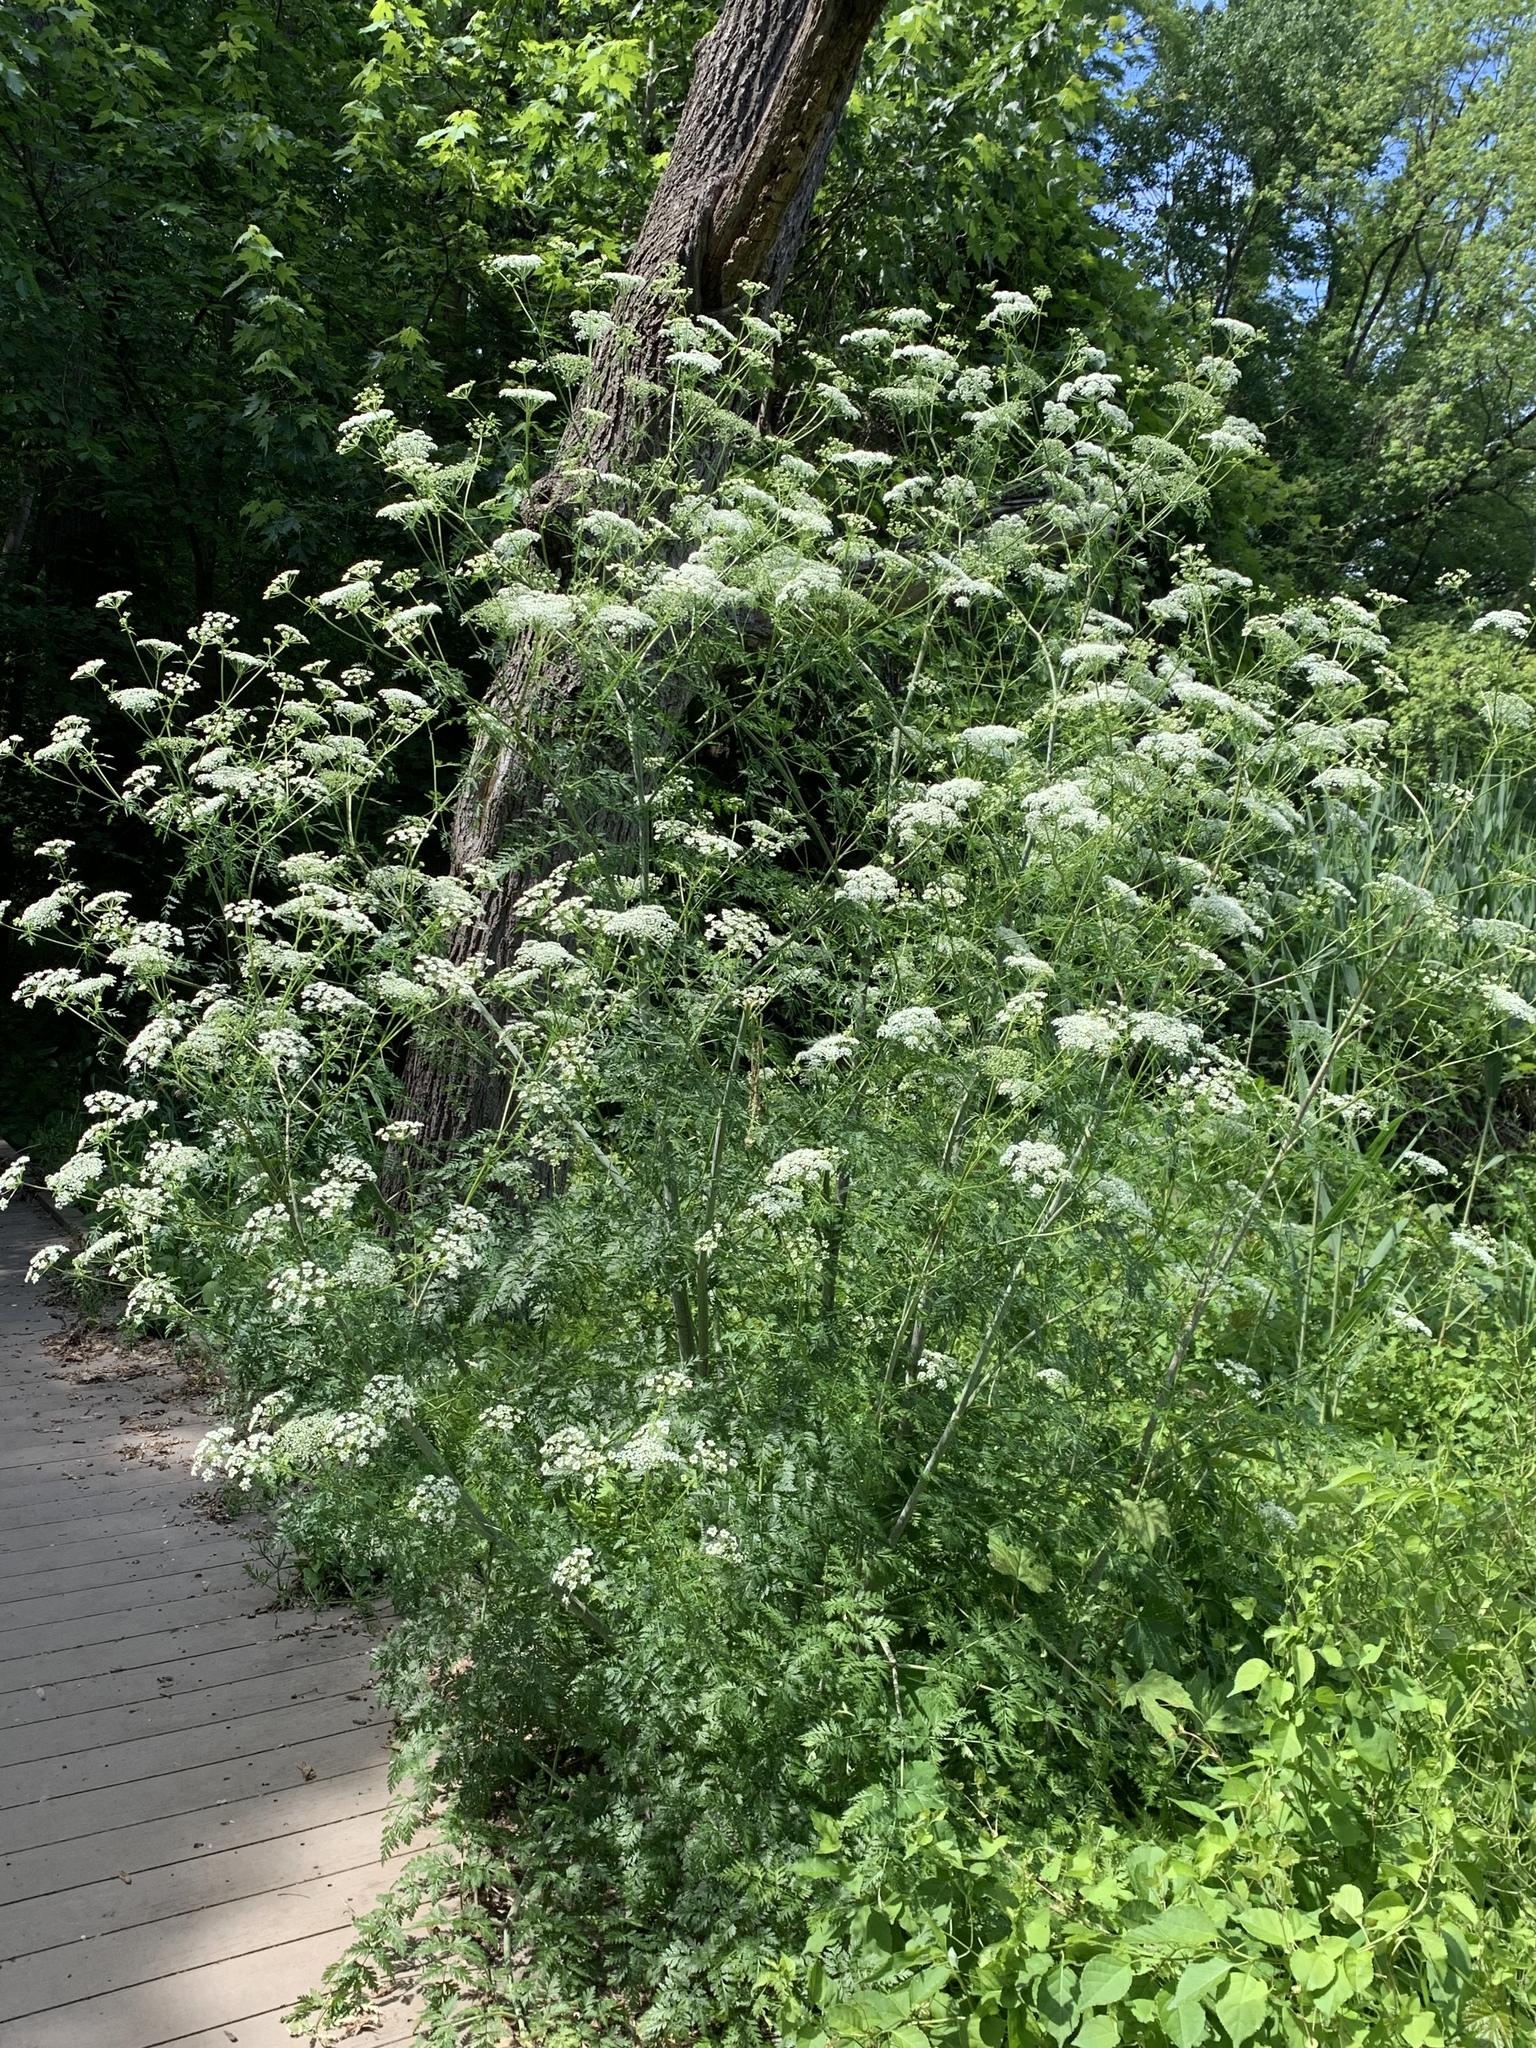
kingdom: Plantae
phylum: Tracheophyta
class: Magnoliopsida
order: Apiales
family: Apiaceae
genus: Conium
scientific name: Conium maculatum
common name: Hemlock
